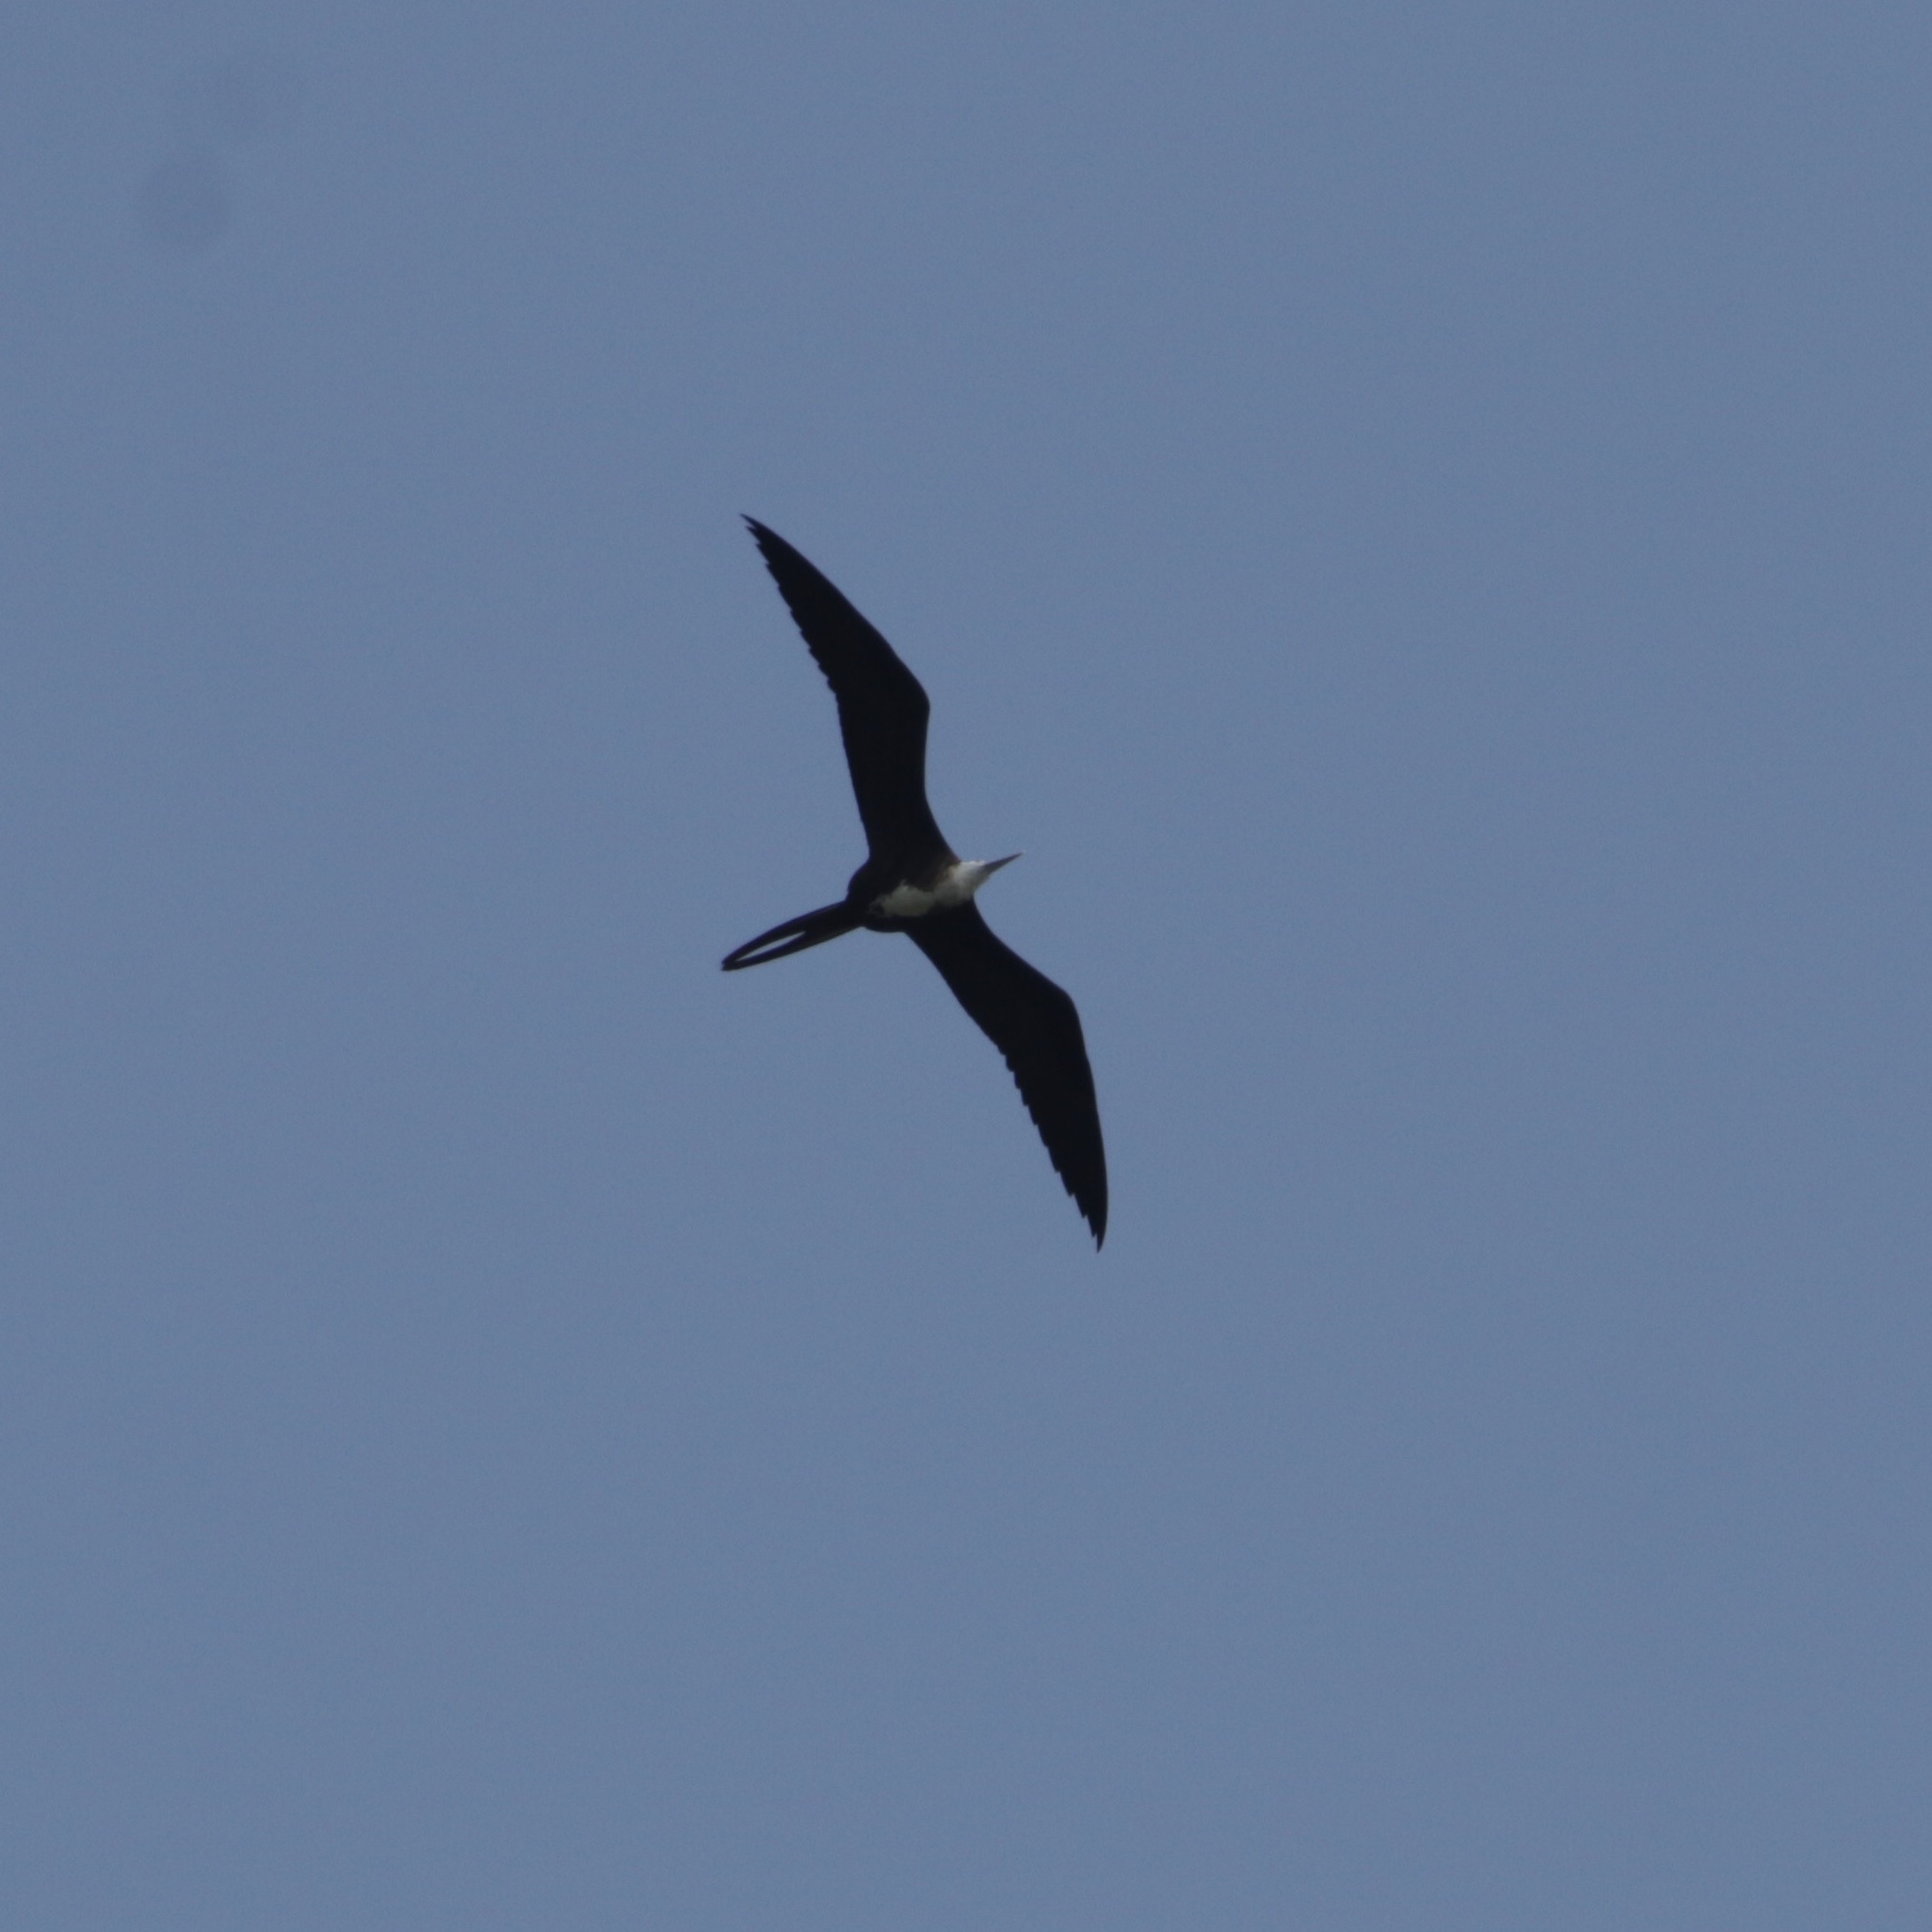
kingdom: Animalia
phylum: Chordata
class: Aves
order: Suliformes
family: Fregatidae
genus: Fregata
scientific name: Fregata magnificens
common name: Magnificent frigatebird
